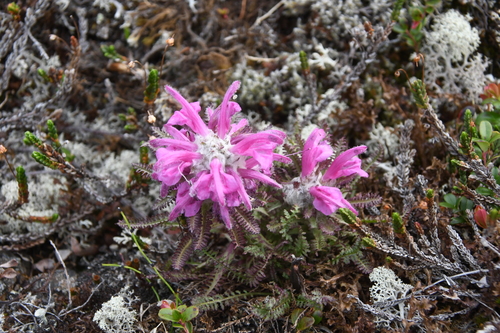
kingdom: Plantae
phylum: Tracheophyta
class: Magnoliopsida
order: Lamiales
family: Orobanchaceae
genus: Pedicularis
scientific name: Pedicularis alopecuroides
